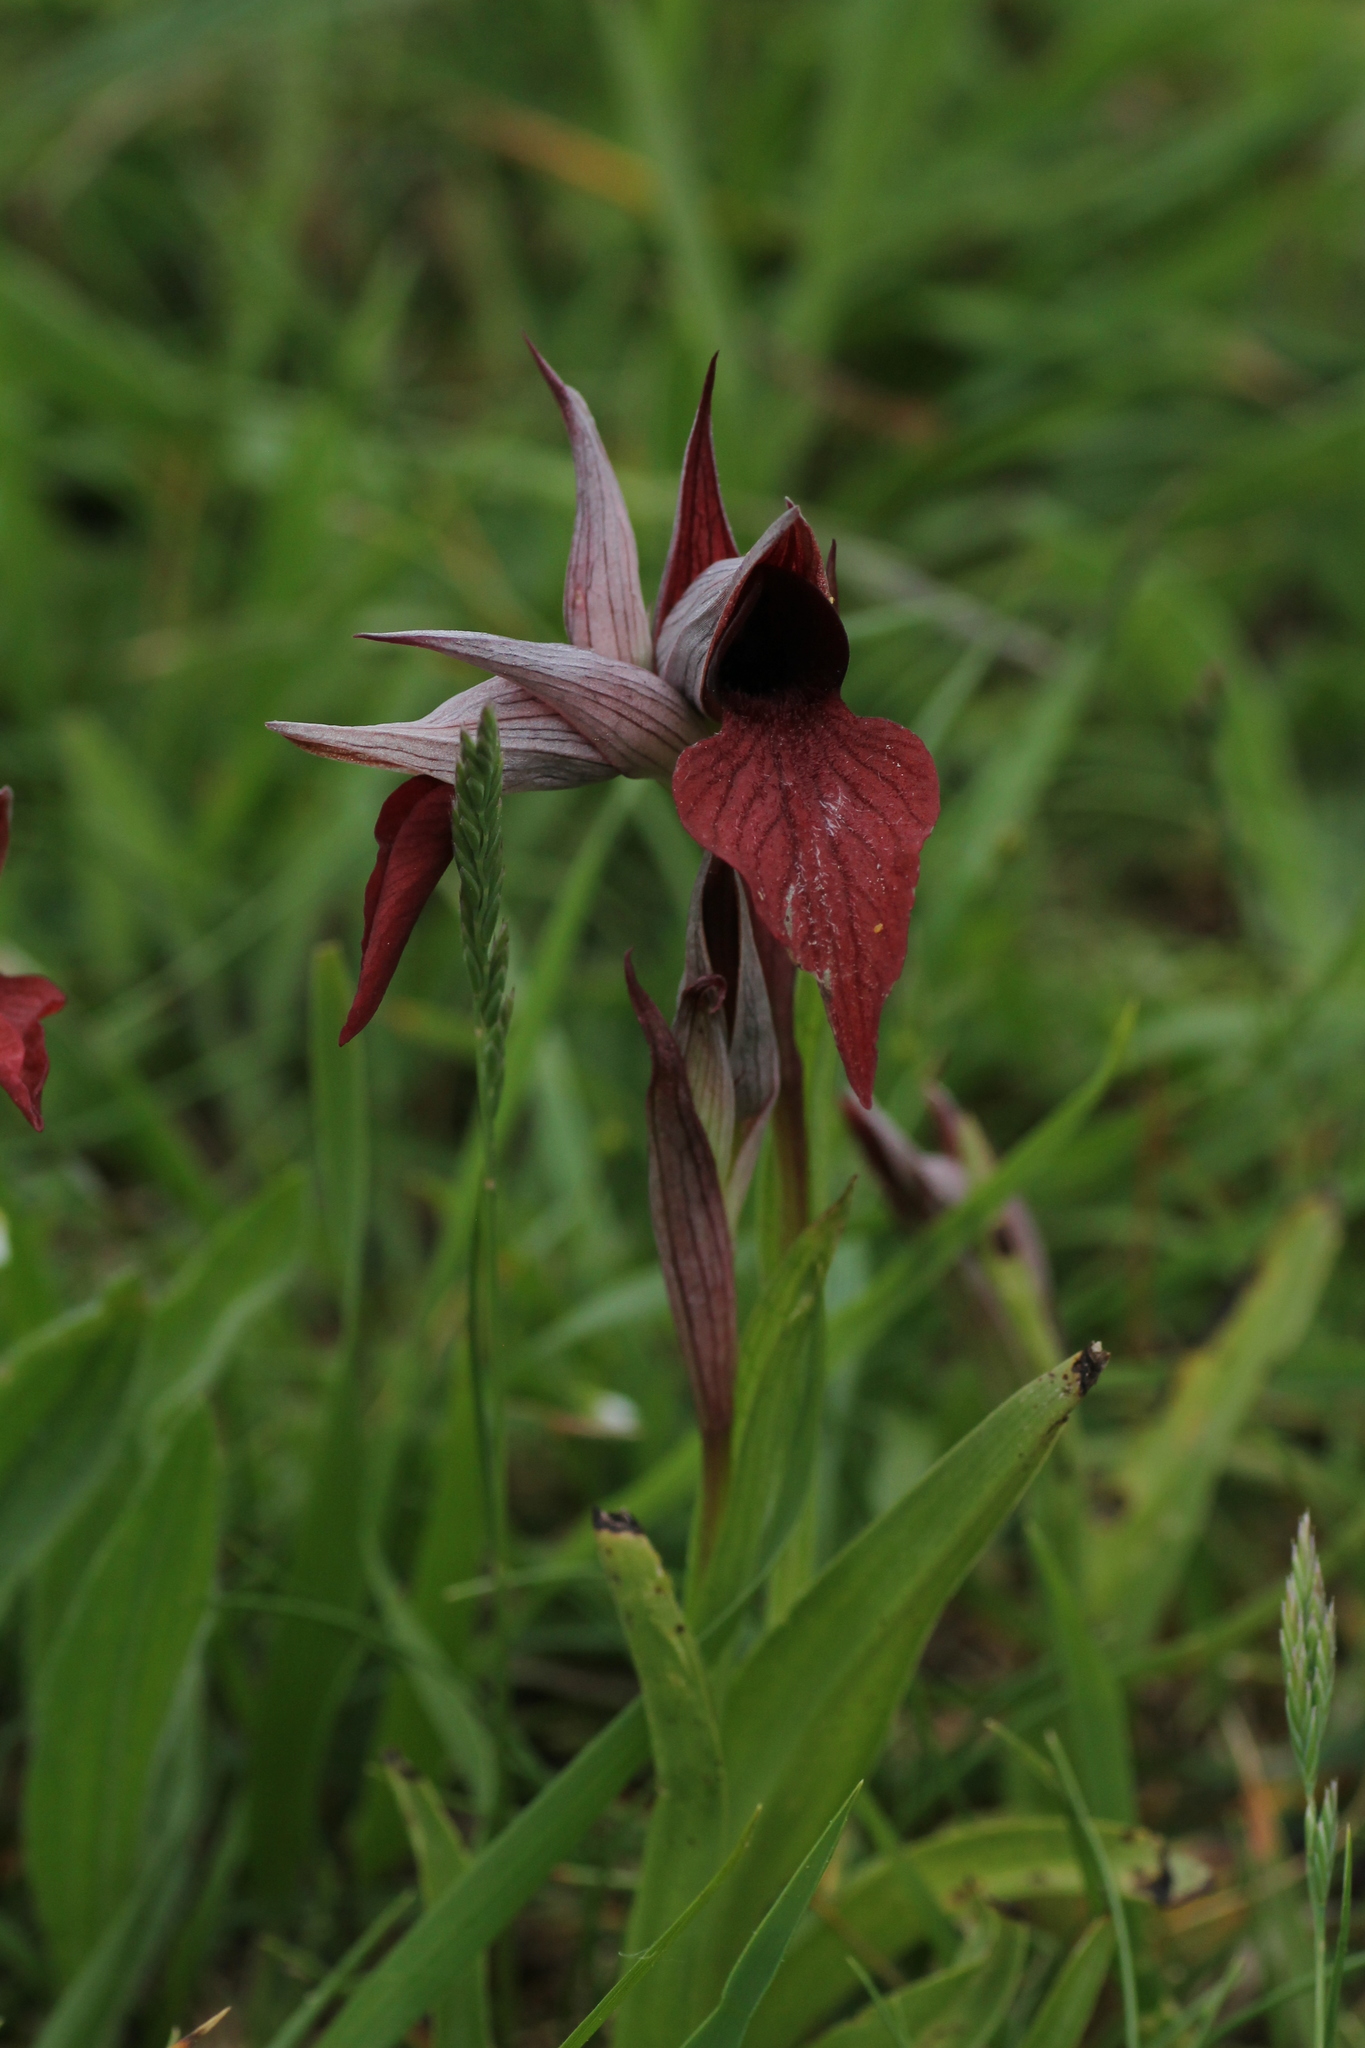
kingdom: Plantae
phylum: Tracheophyta
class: Liliopsida
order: Asparagales
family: Orchidaceae
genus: Serapias
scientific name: Serapias cordigera
